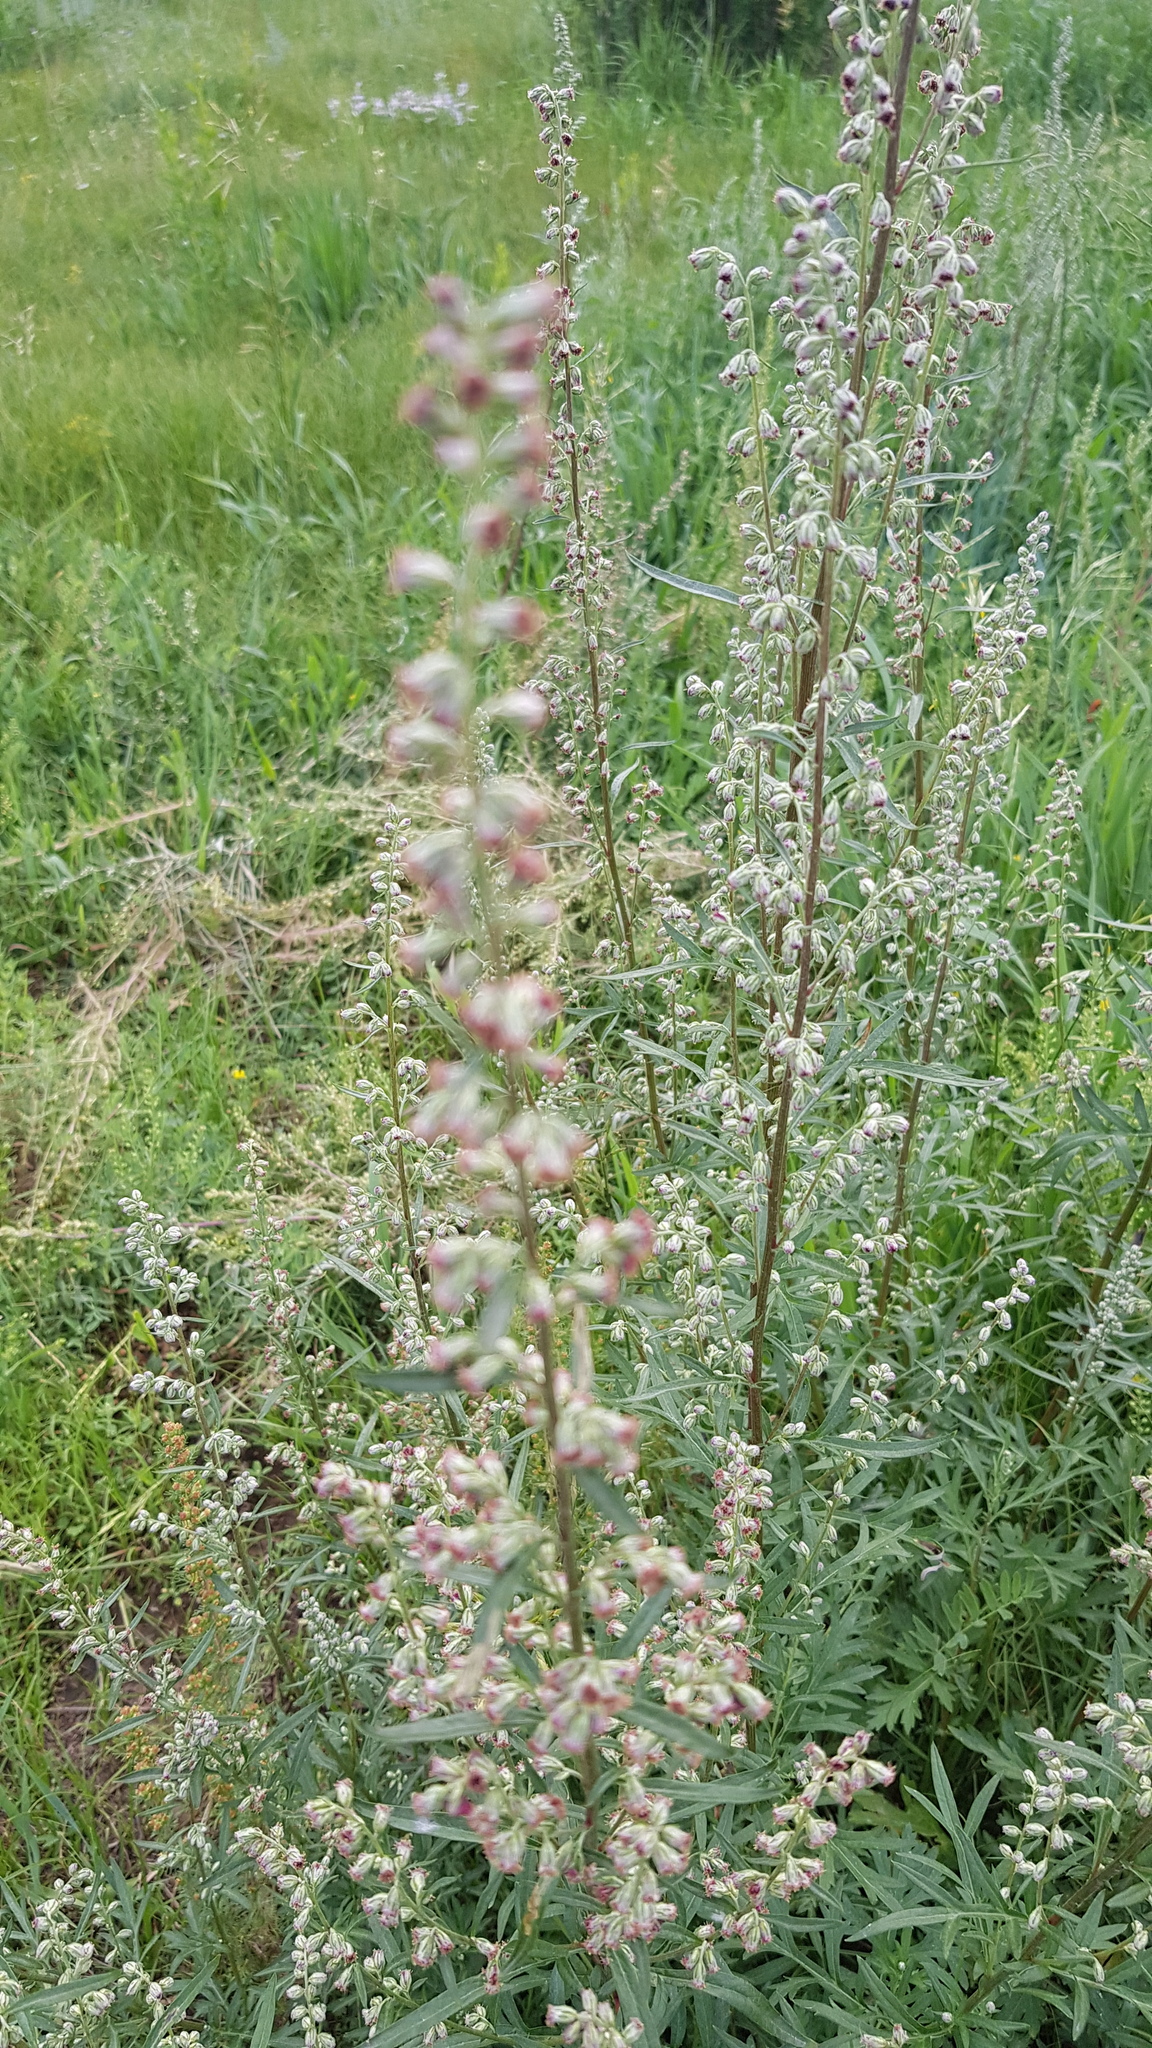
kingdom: Plantae
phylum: Tracheophyta
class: Magnoliopsida
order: Asterales
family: Asteraceae
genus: Artemisia
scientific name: Artemisia vulgaris
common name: Mugwort
